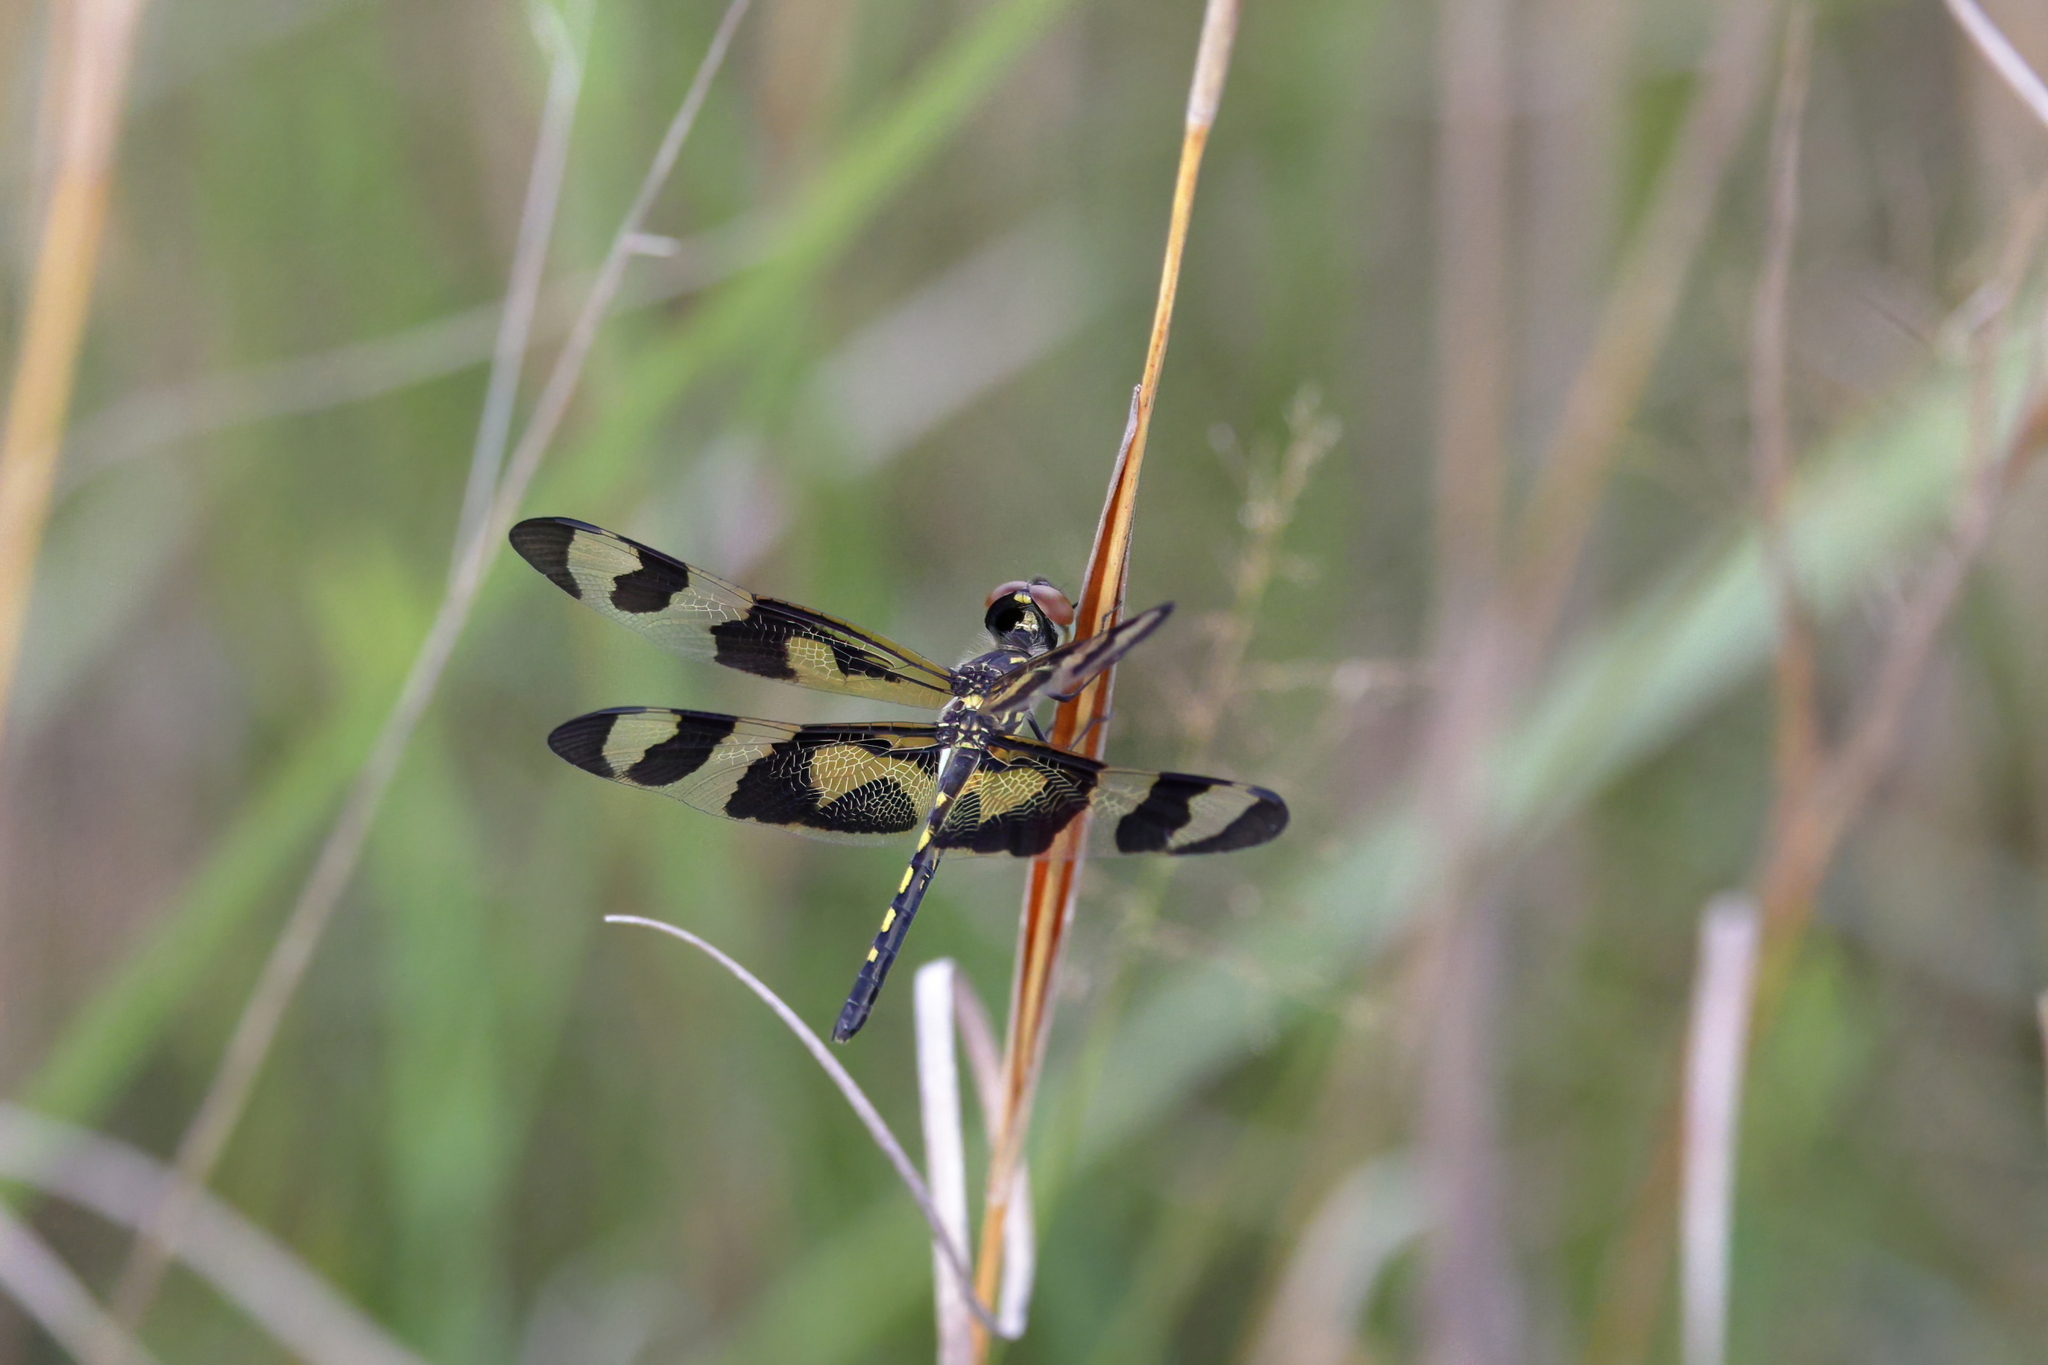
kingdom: Animalia
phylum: Arthropoda
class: Insecta
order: Odonata
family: Libellulidae
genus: Celithemis
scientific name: Celithemis fasciata
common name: Banded pennant
